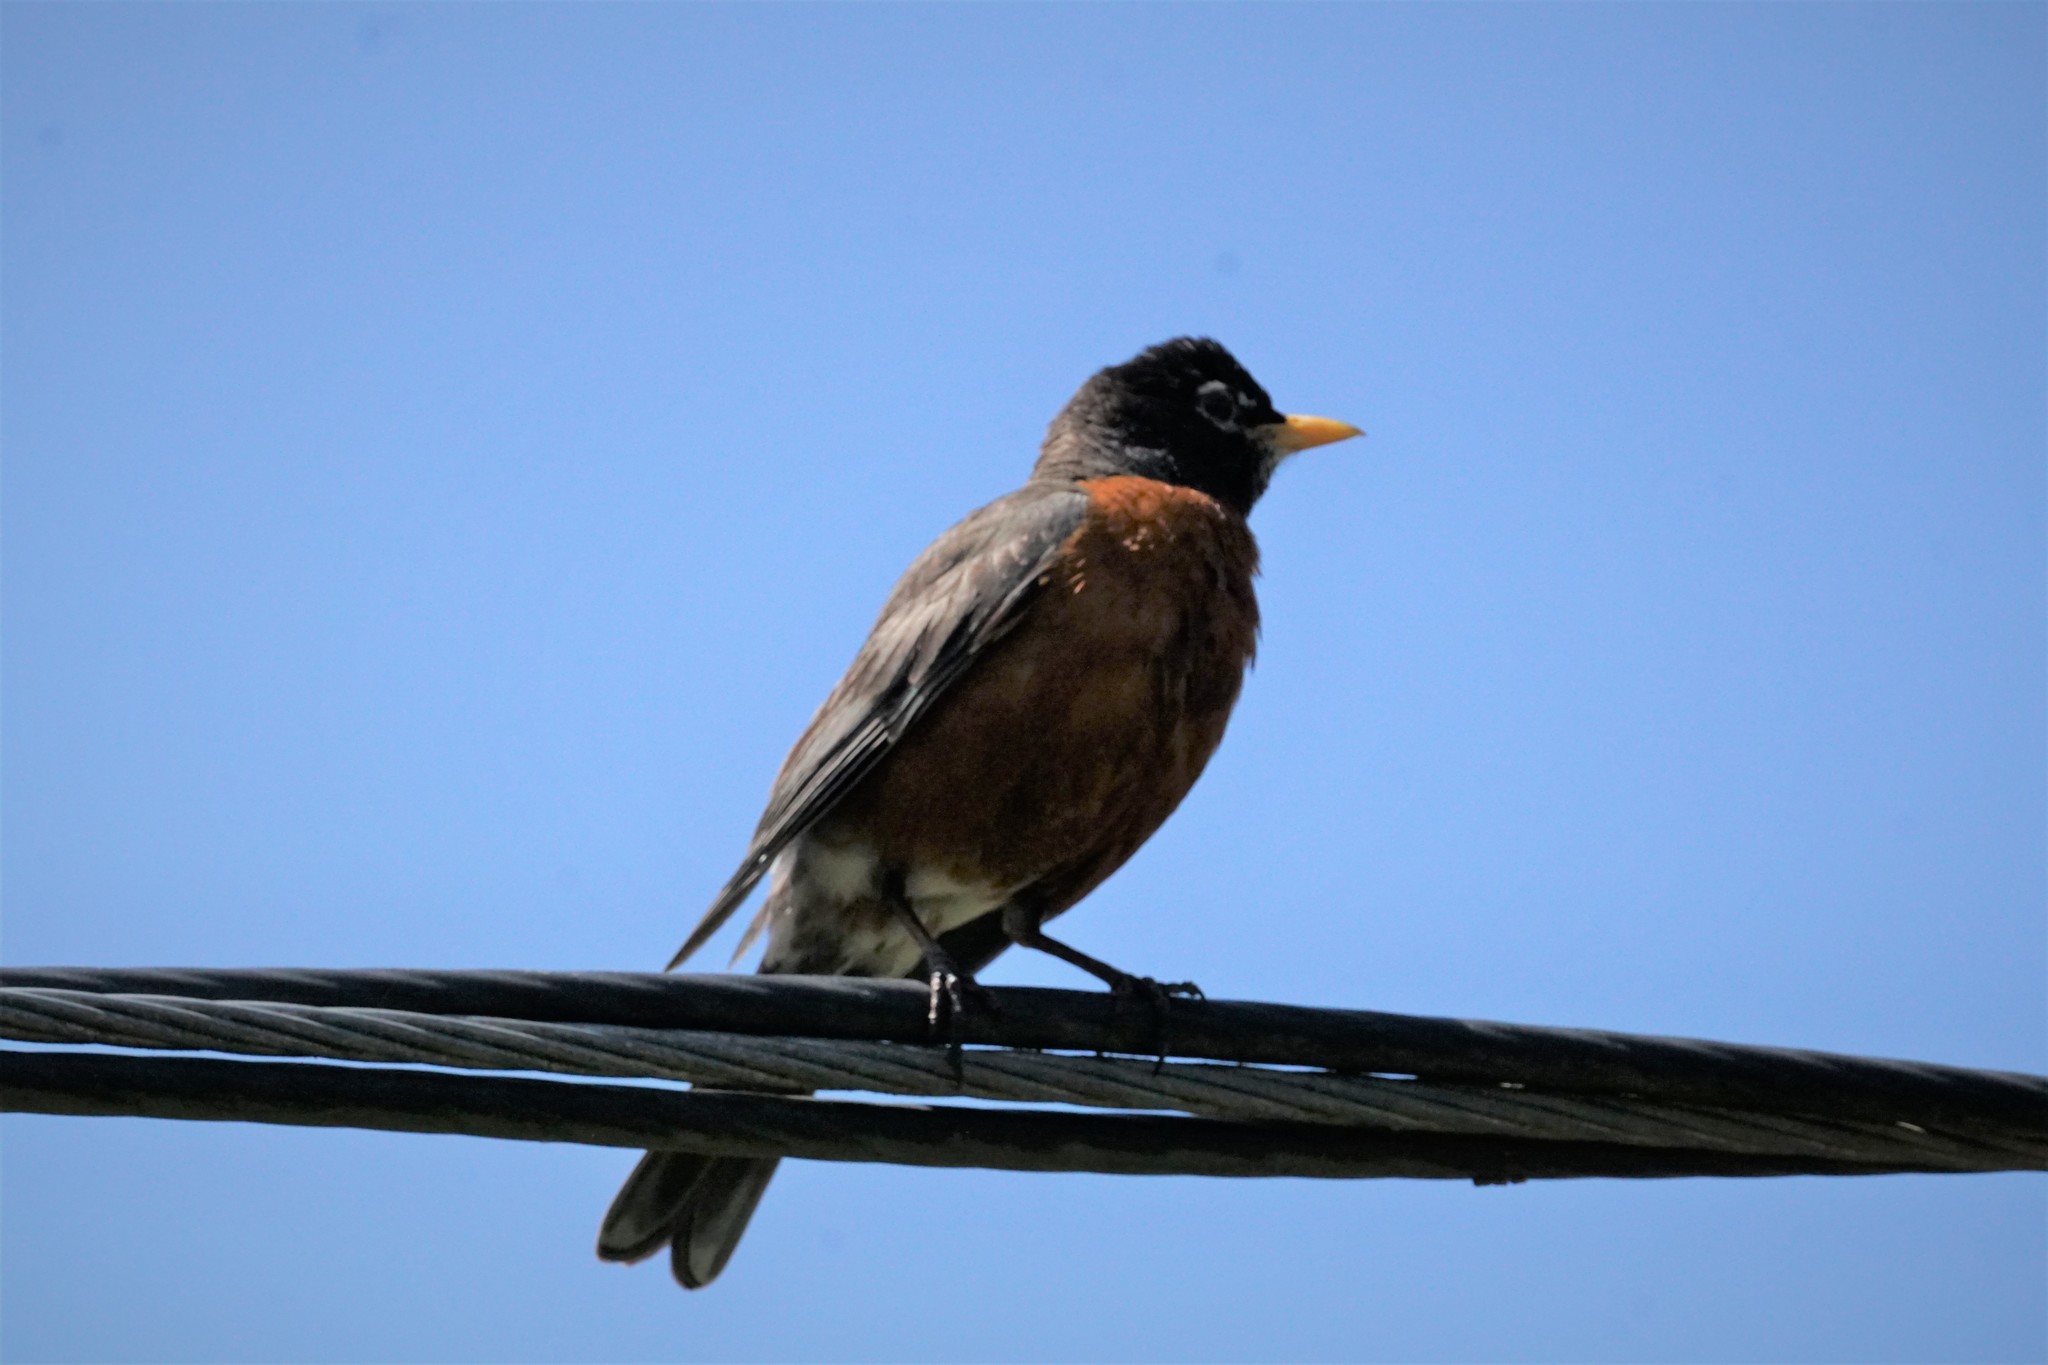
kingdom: Animalia
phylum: Chordata
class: Aves
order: Passeriformes
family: Turdidae
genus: Turdus
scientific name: Turdus migratorius
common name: American robin
